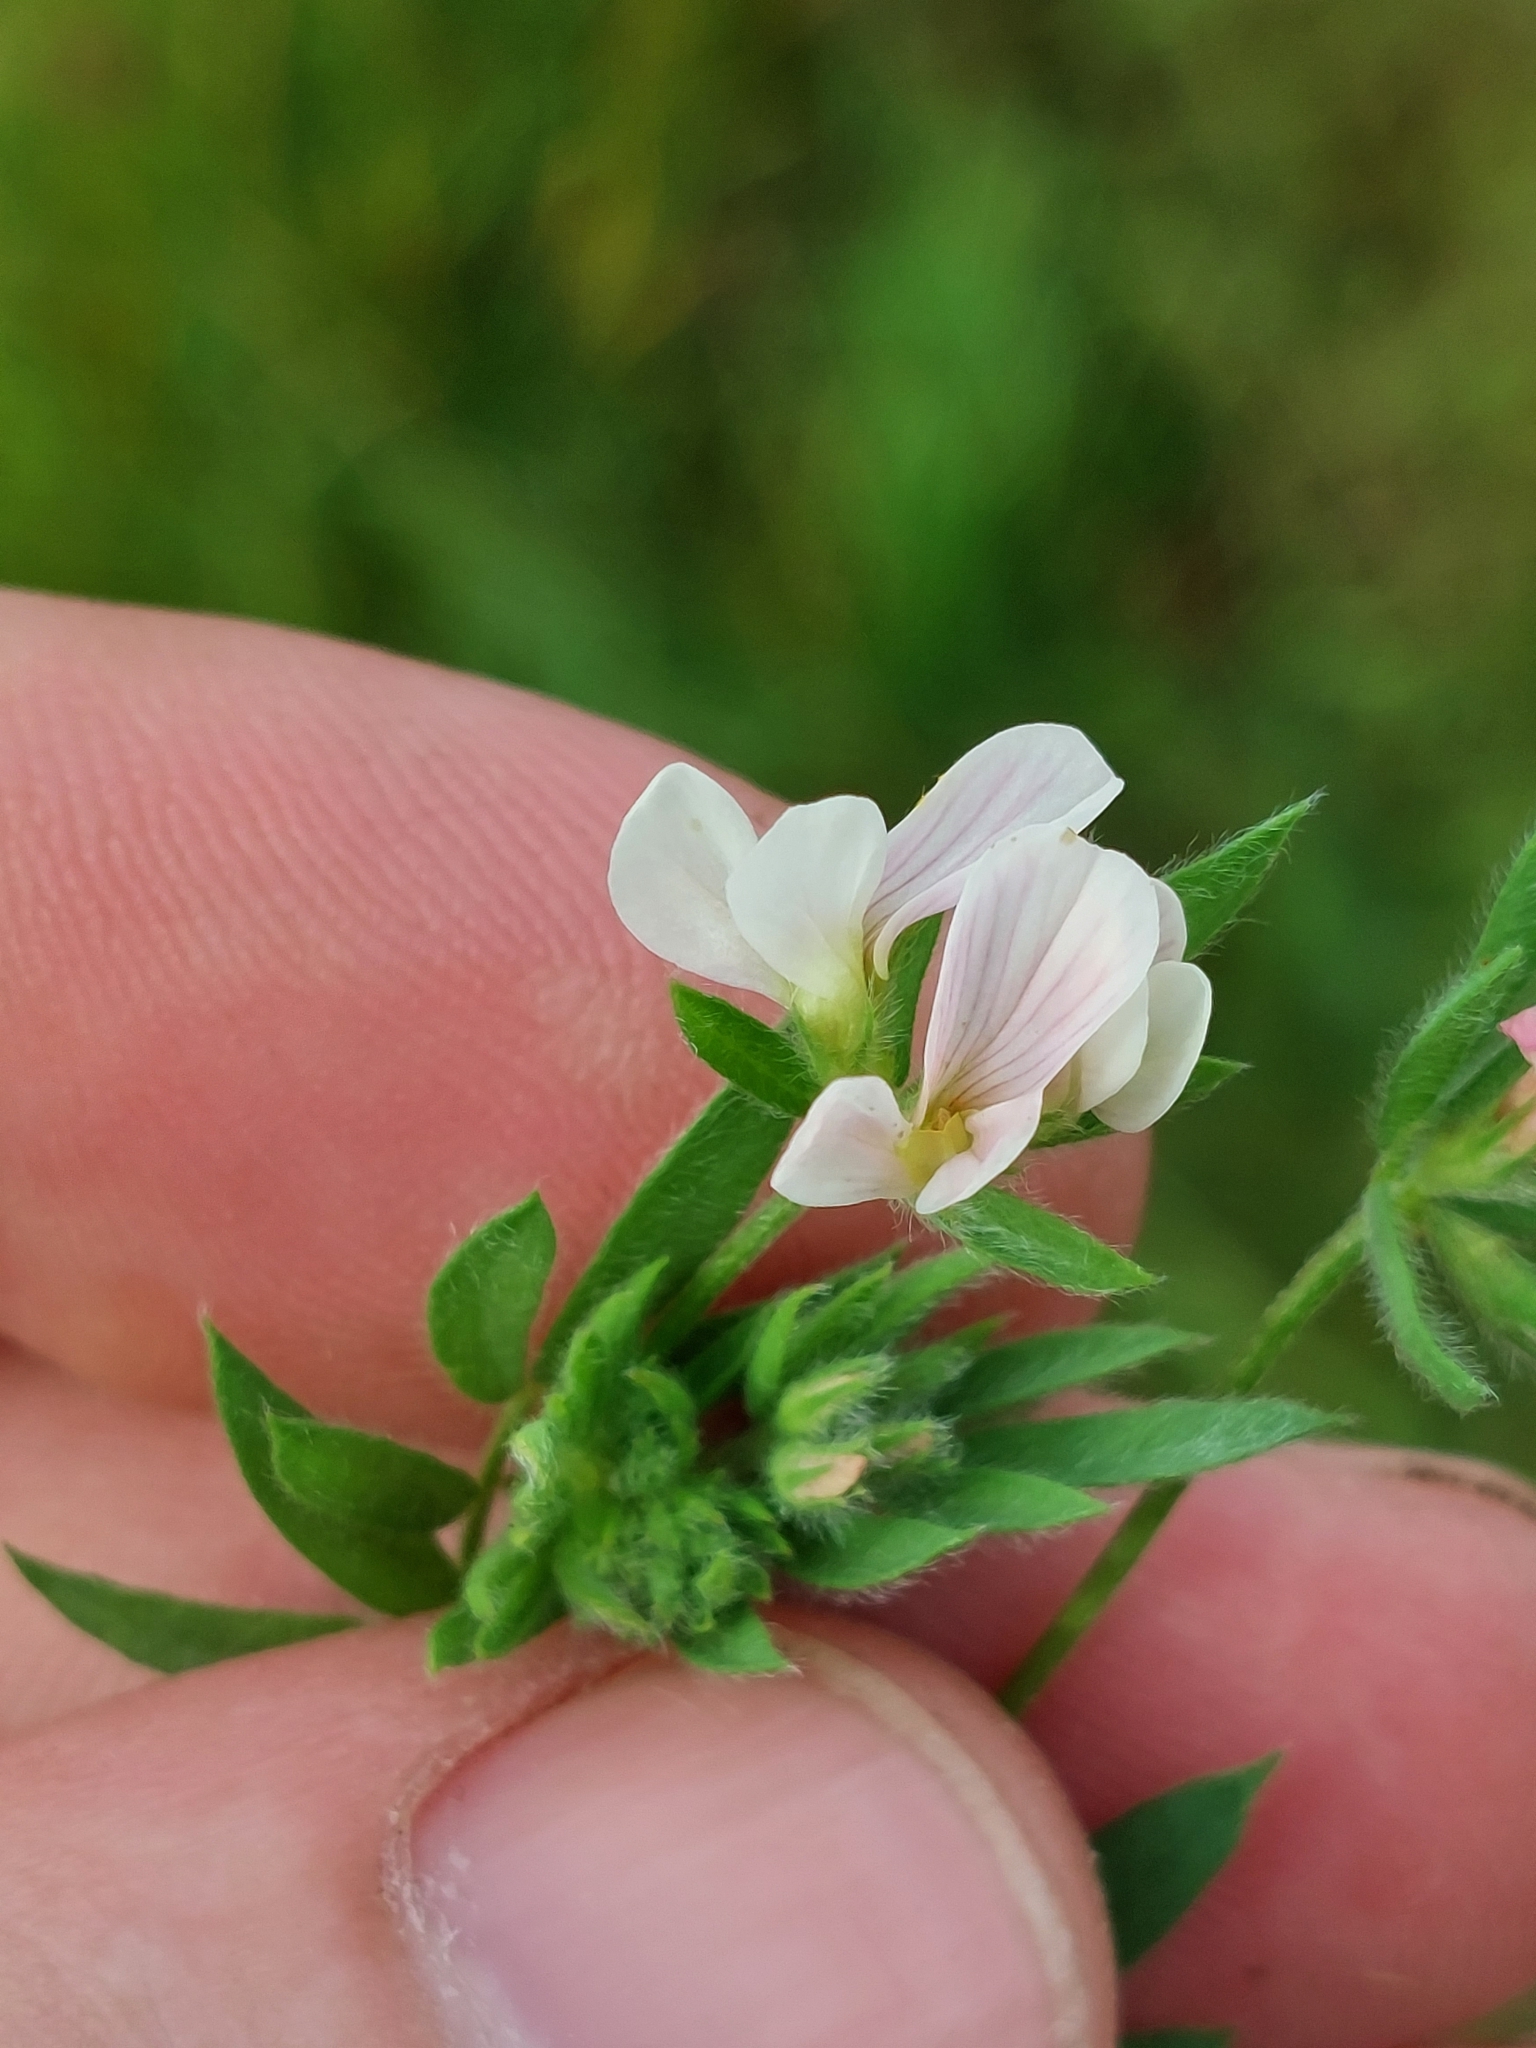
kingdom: Plantae
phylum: Tracheophyta
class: Magnoliopsida
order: Fabales
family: Fabaceae
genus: Ornithopus
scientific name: Ornithopus sativus
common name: Serradella
